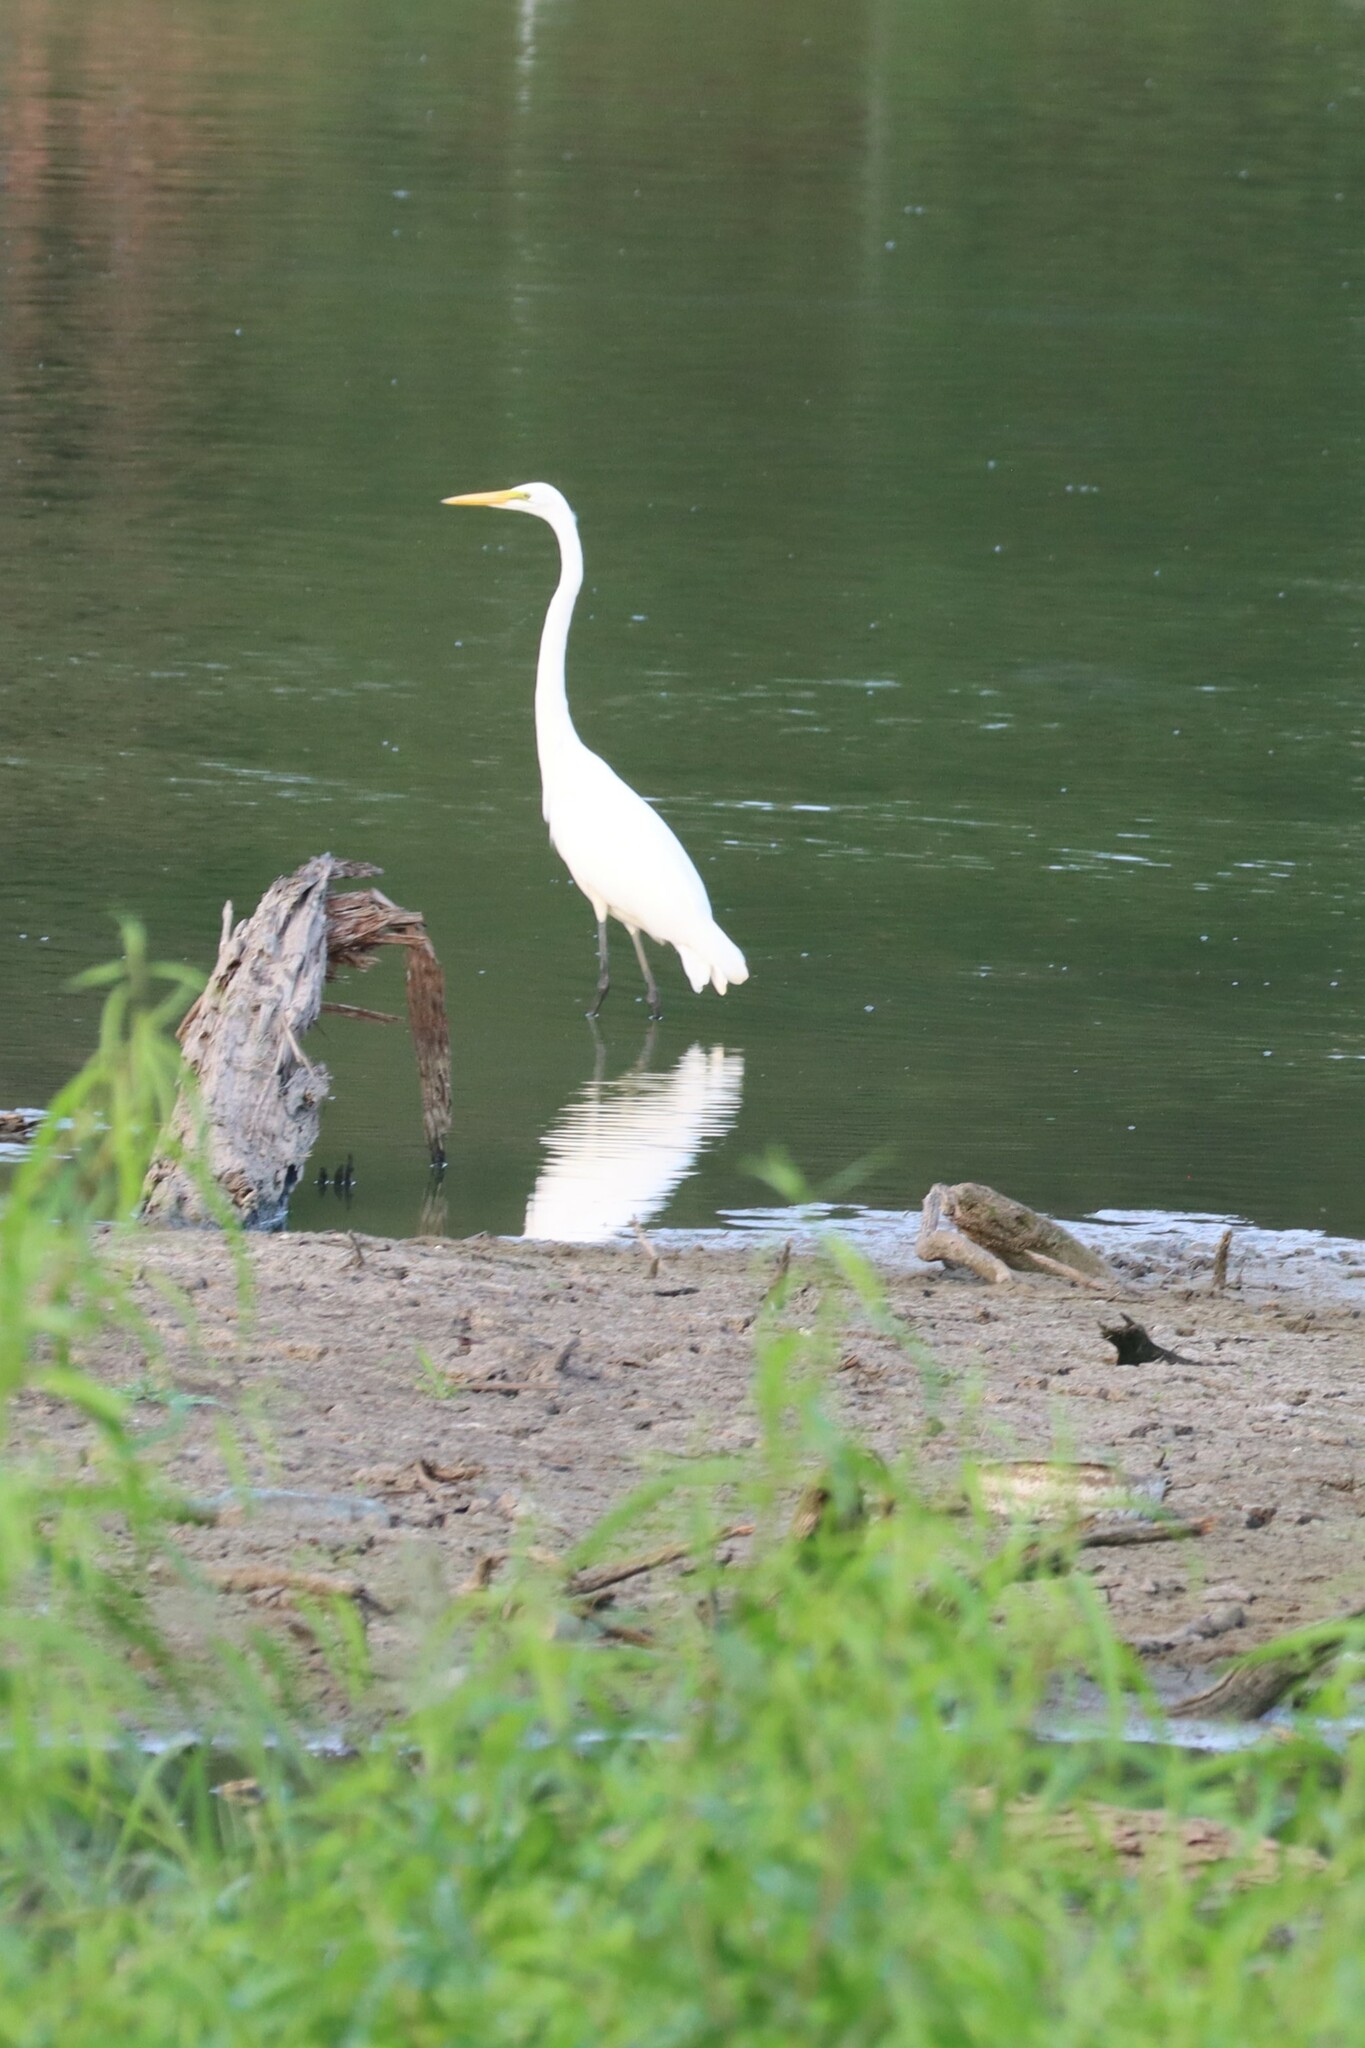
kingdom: Animalia
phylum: Chordata
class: Aves
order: Pelecaniformes
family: Ardeidae
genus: Ardea
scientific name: Ardea alba
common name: Great egret
